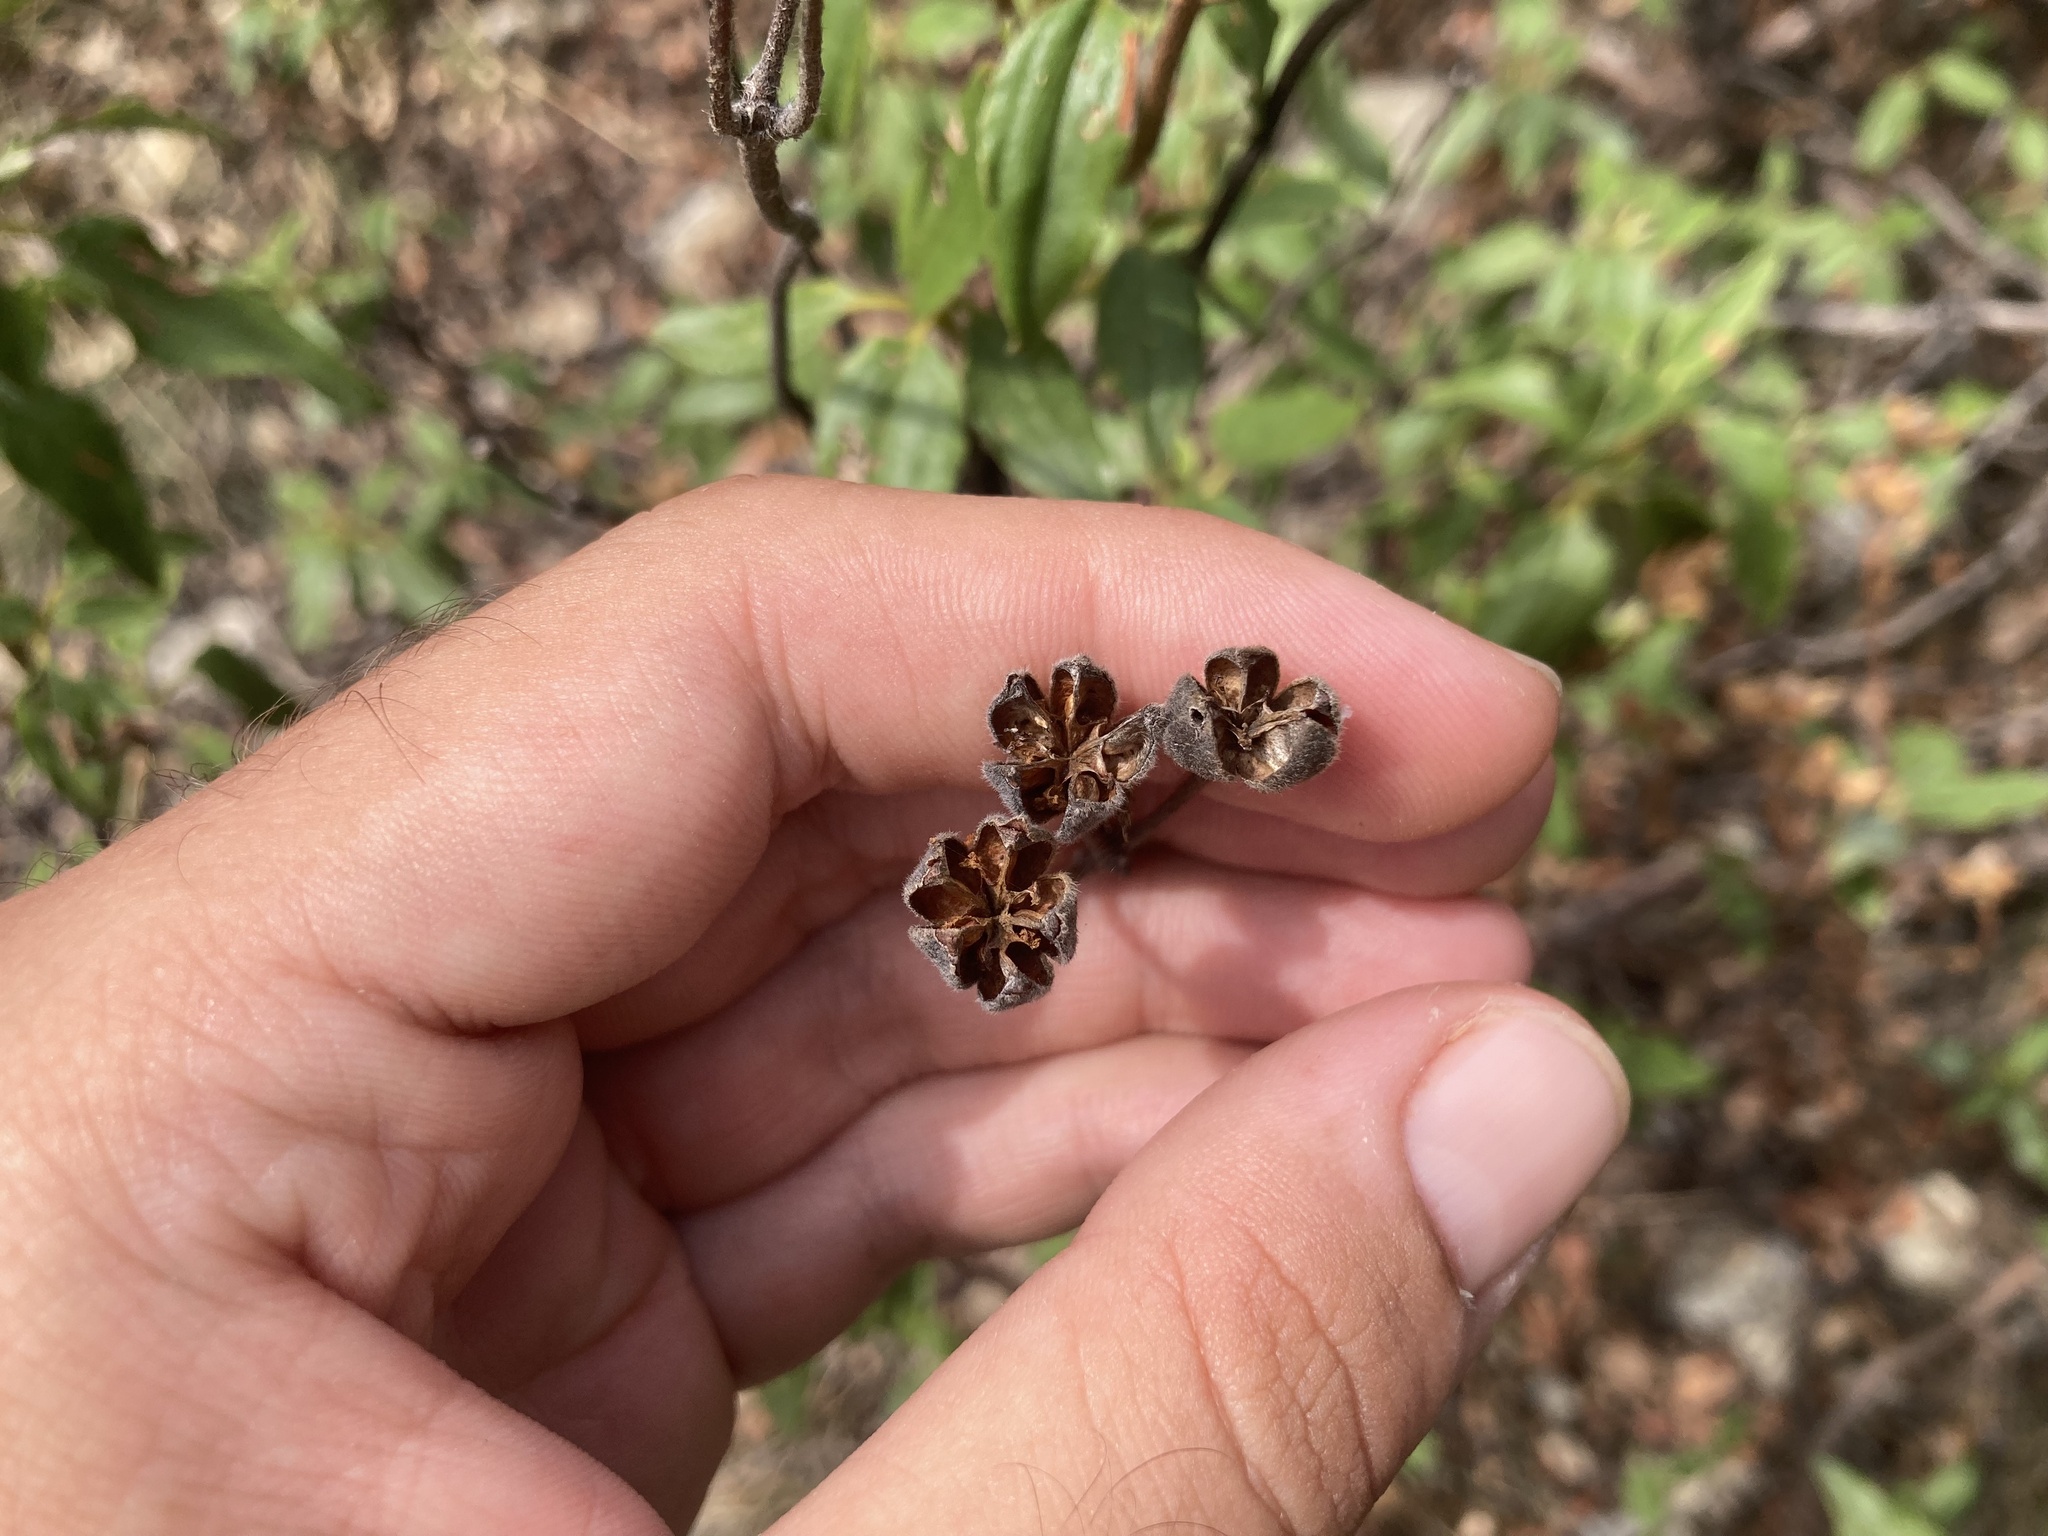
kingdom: Plantae
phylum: Tracheophyta
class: Magnoliopsida
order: Malvales
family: Cistaceae
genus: Cistus
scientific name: Cistus laurifolius
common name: Laurel-leaved cistus
